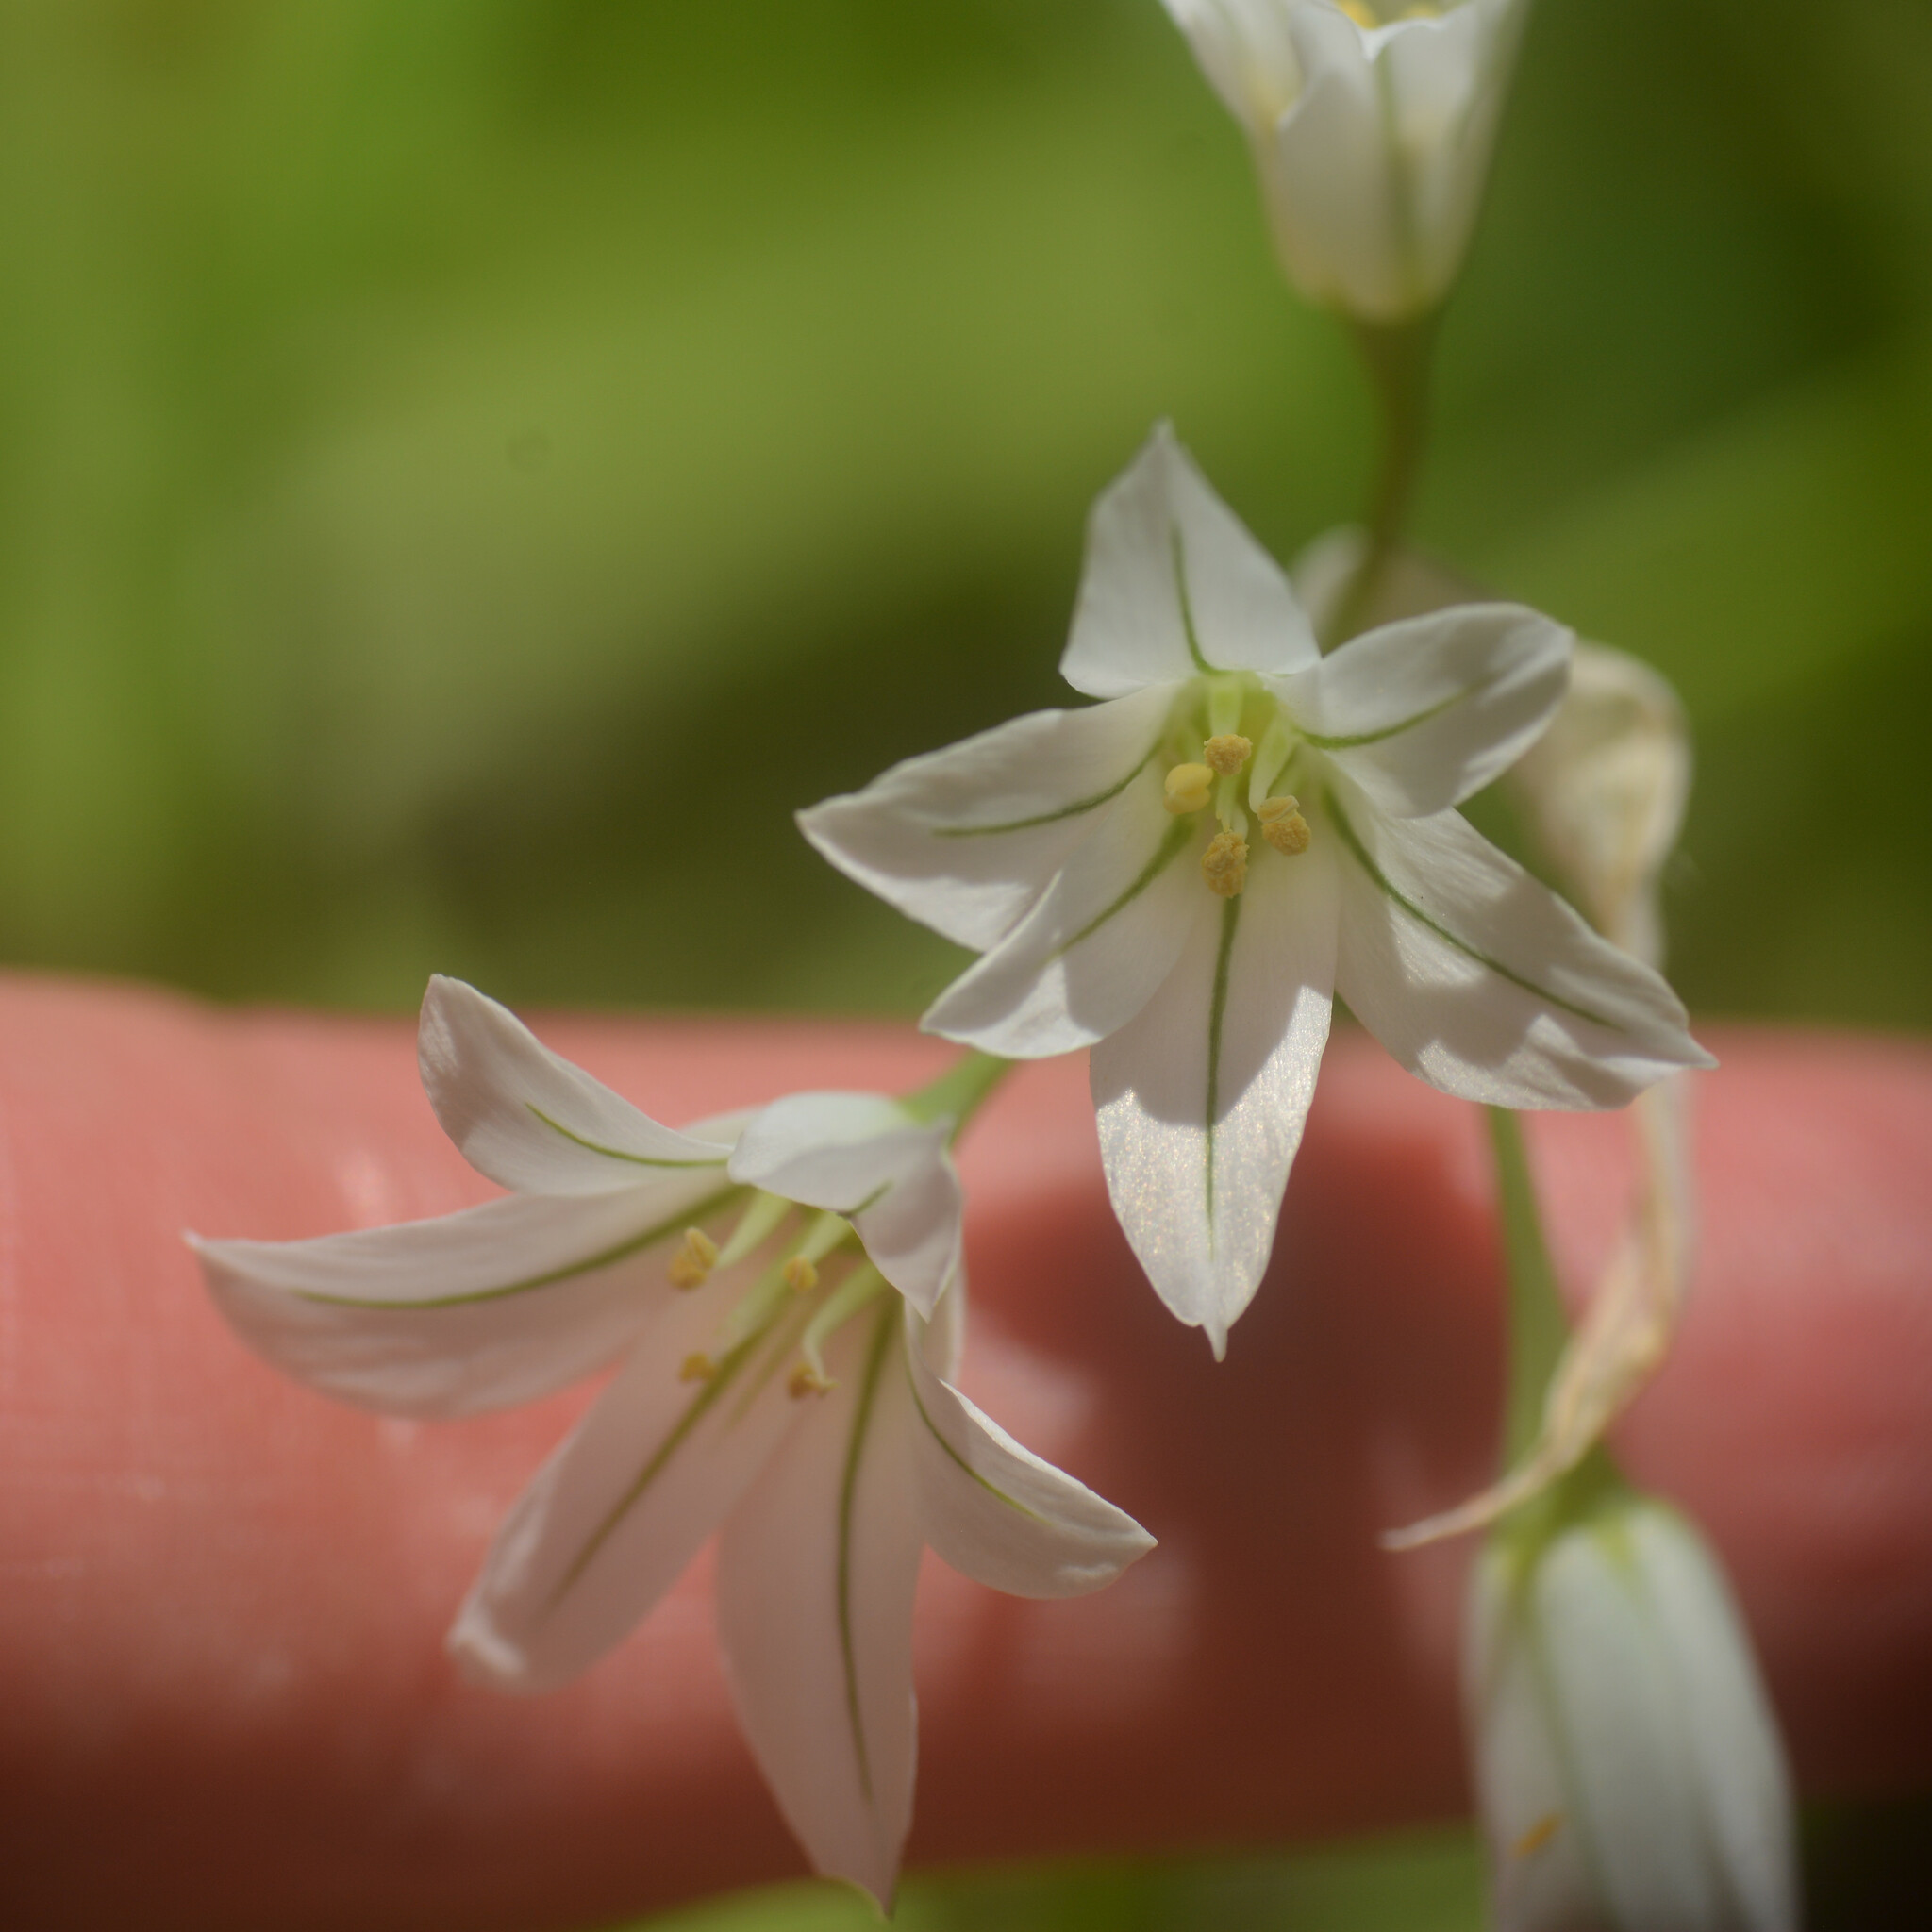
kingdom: Plantae
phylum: Tracheophyta
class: Liliopsida
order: Asparagales
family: Amaryllidaceae
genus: Allium
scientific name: Allium triquetrum
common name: Three-cornered garlic
